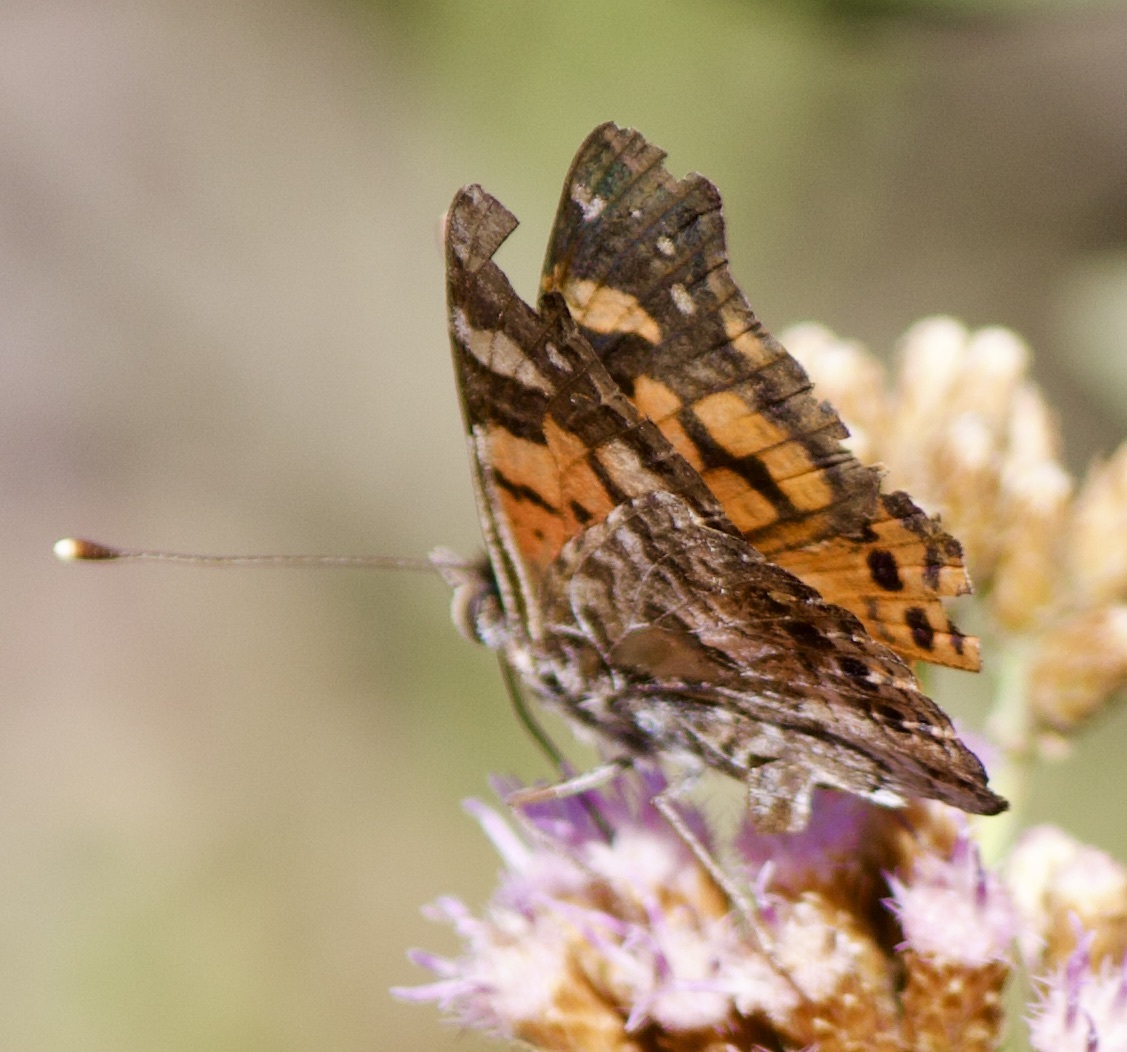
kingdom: Animalia
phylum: Arthropoda
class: Insecta
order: Lepidoptera
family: Nymphalidae
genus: Vanessa
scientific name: Vanessa carye
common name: Subtropical lady
